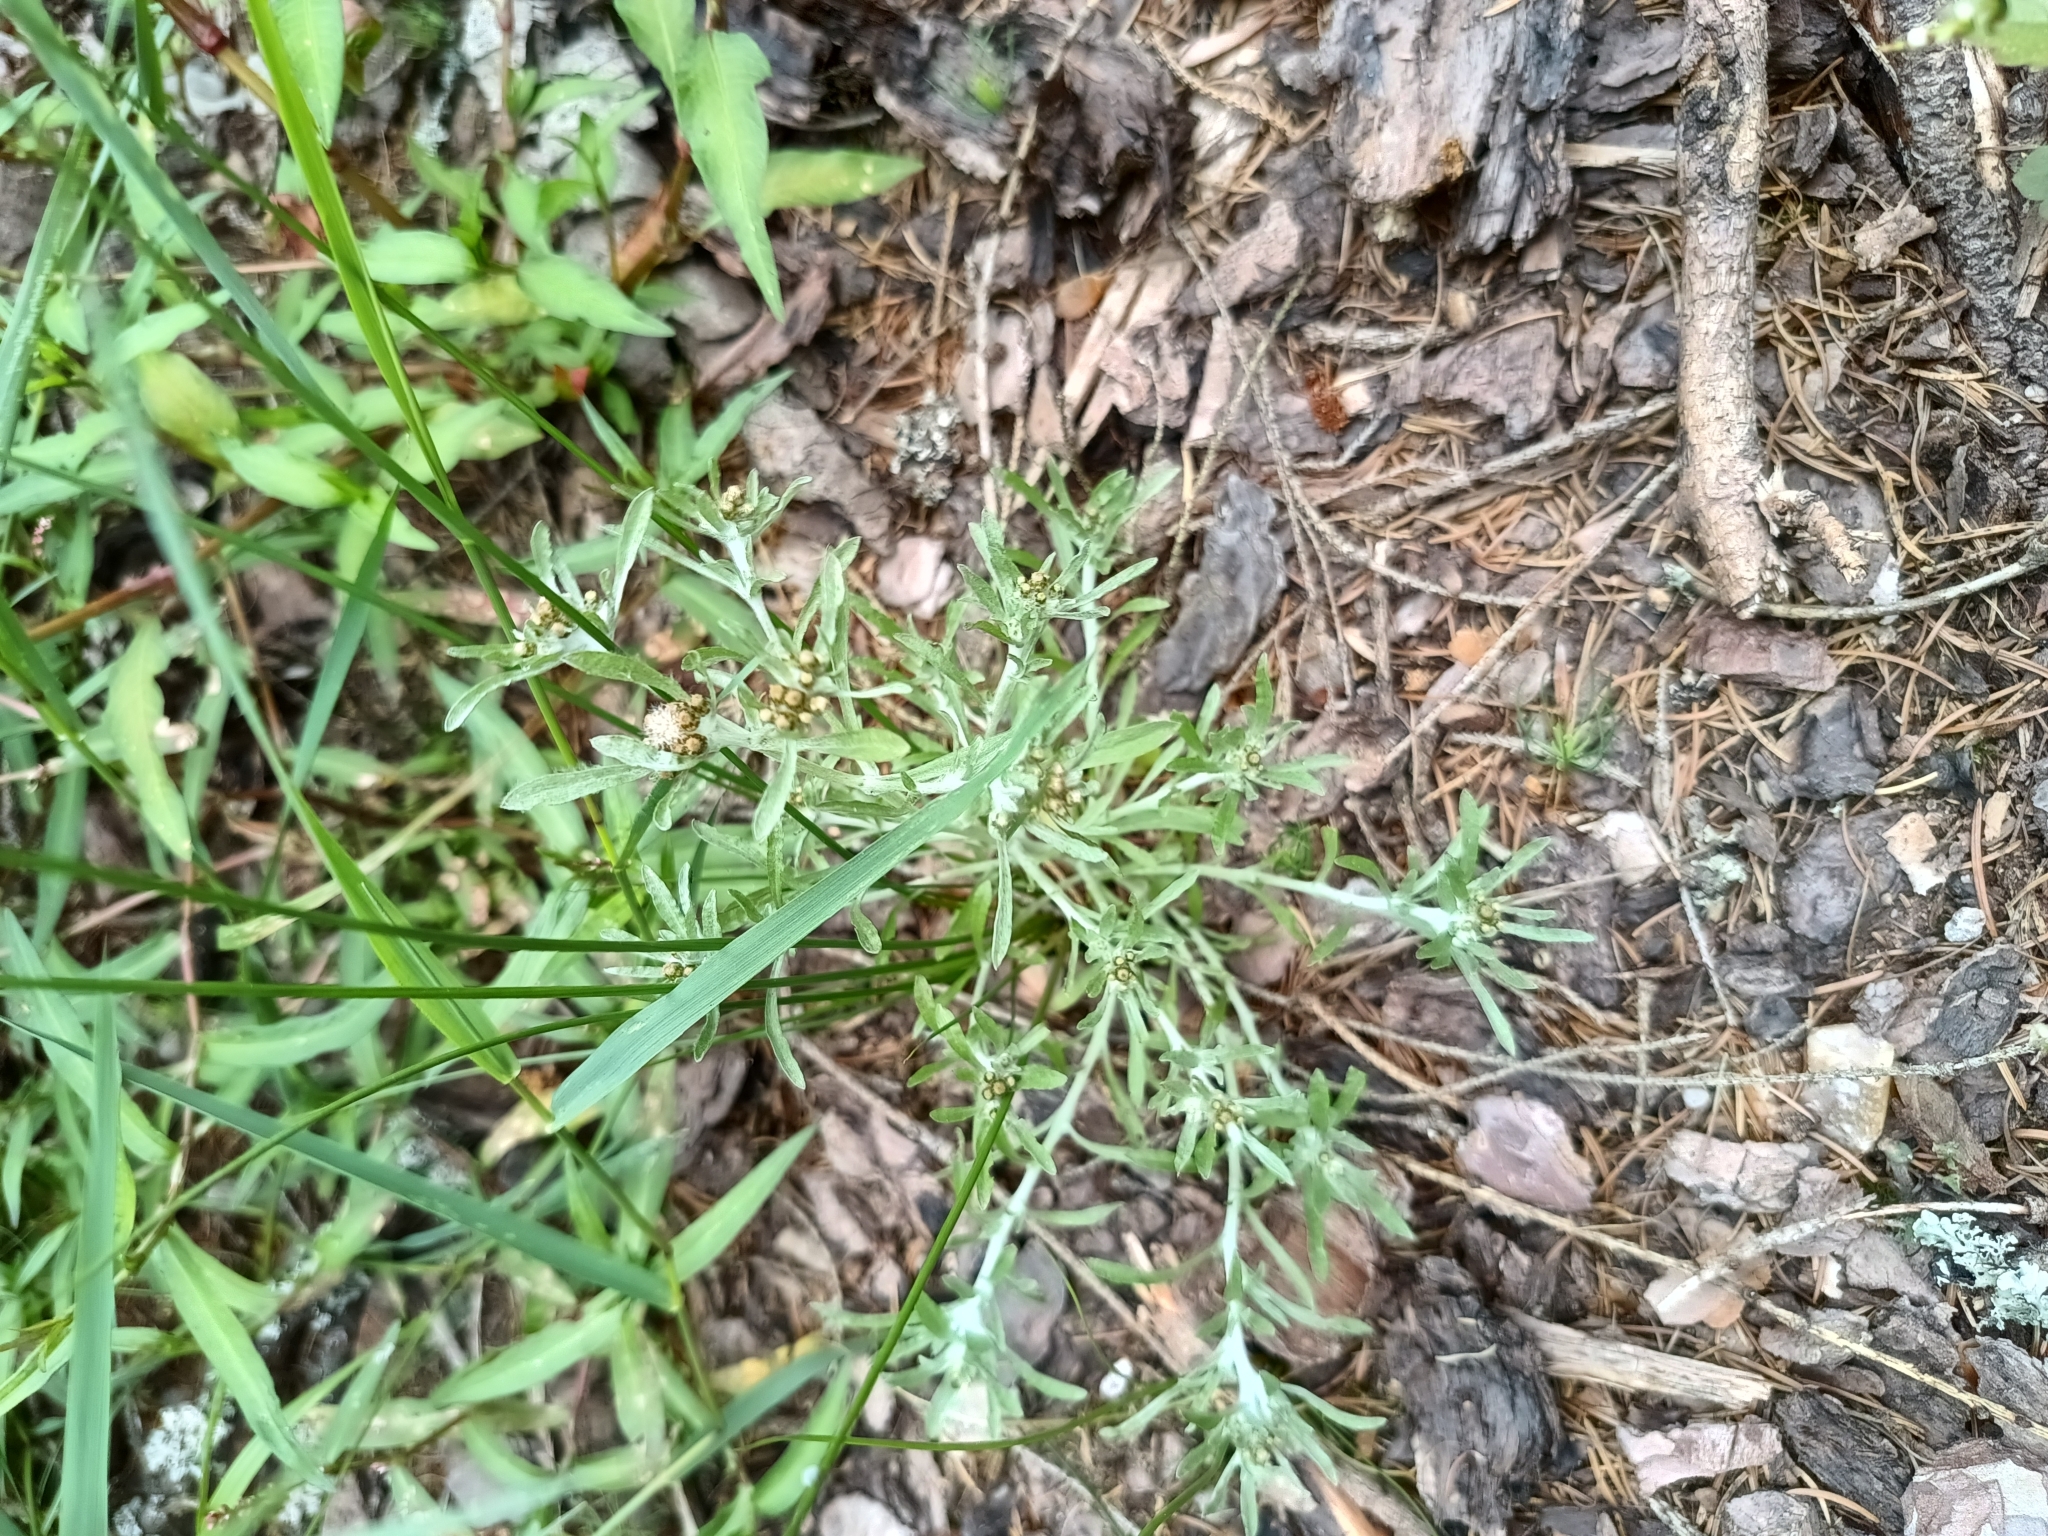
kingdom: Plantae
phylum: Tracheophyta
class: Magnoliopsida
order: Asterales
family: Asteraceae
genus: Gnaphalium
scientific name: Gnaphalium uliginosum
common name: Marsh cudweed
